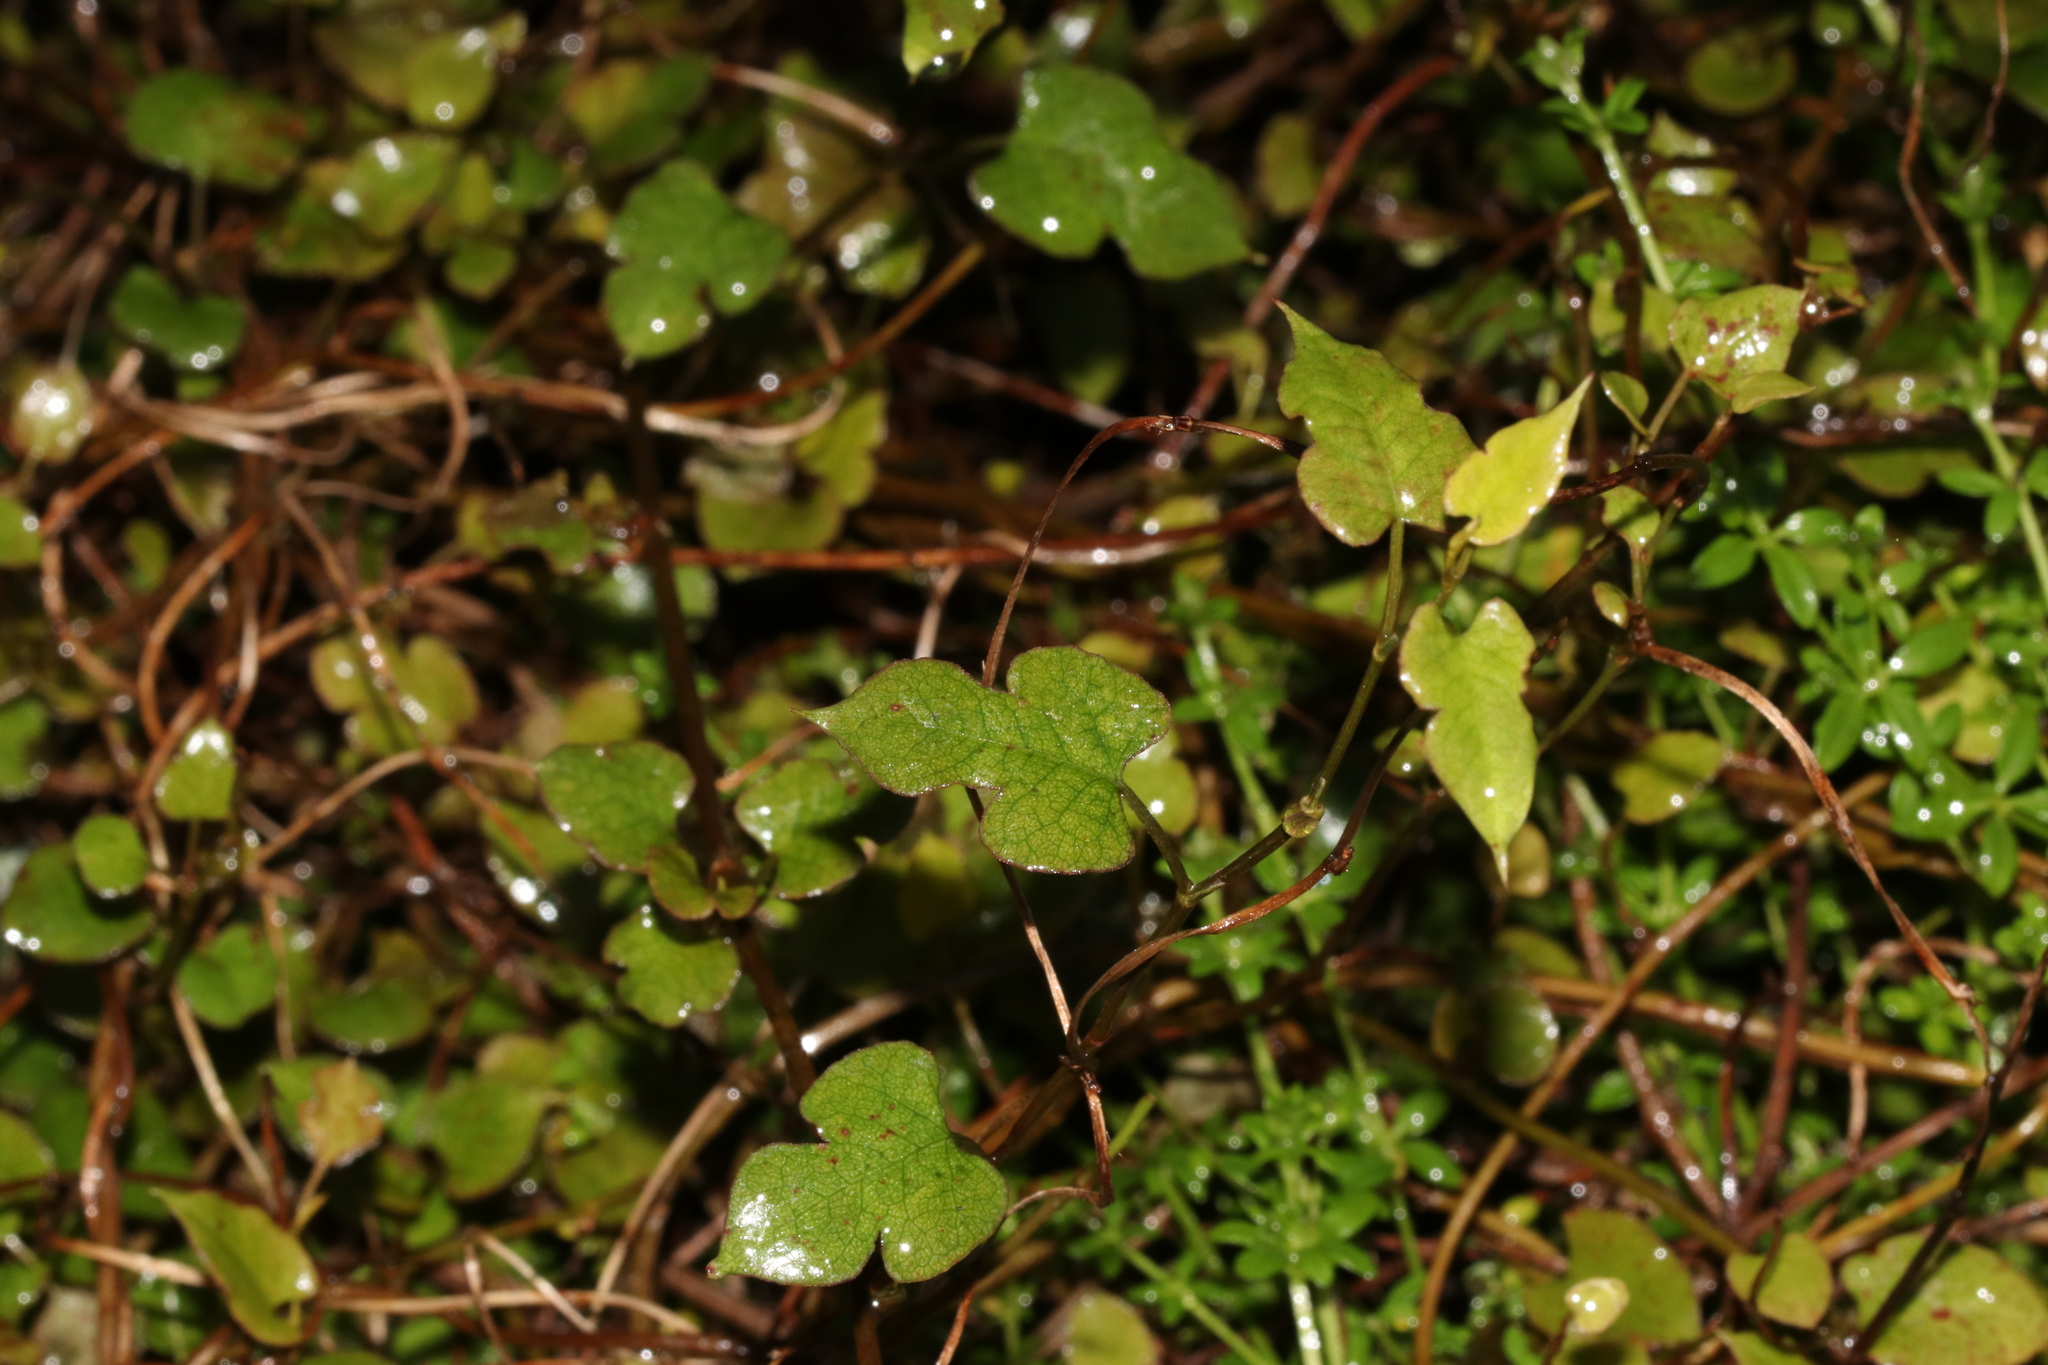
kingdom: Plantae
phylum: Tracheophyta
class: Magnoliopsida
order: Caryophyllales
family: Polygonaceae
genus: Muehlenbeckia
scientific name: Muehlenbeckia australis
